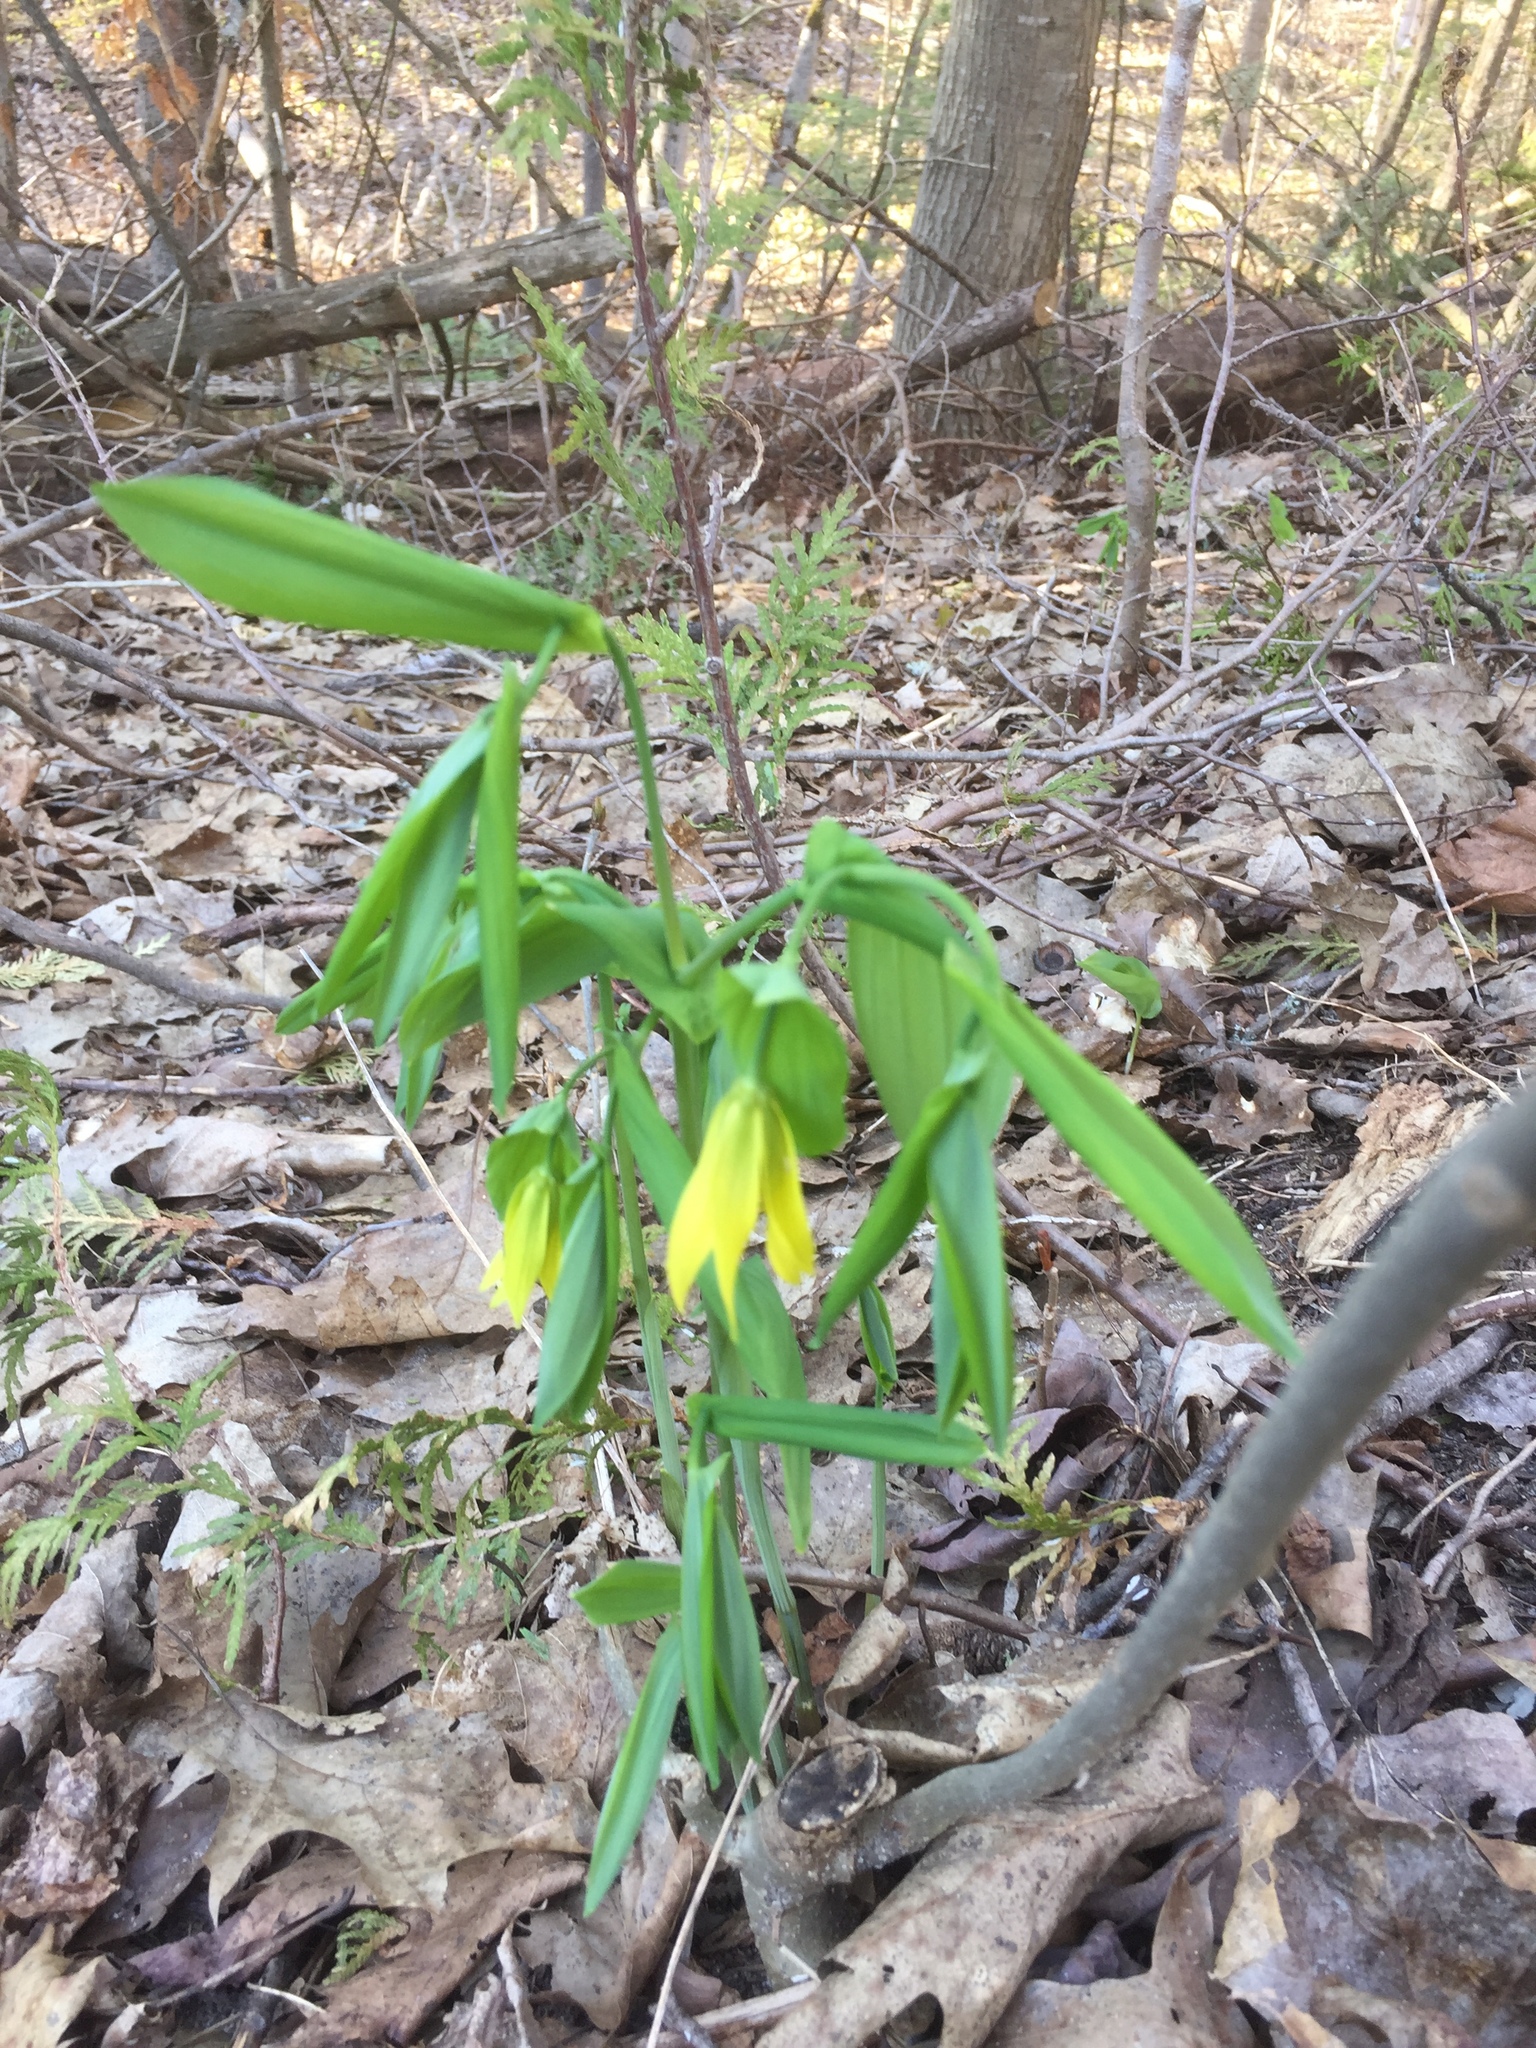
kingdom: Plantae
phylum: Tracheophyta
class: Liliopsida
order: Liliales
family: Colchicaceae
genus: Uvularia
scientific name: Uvularia grandiflora
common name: Bellwort
